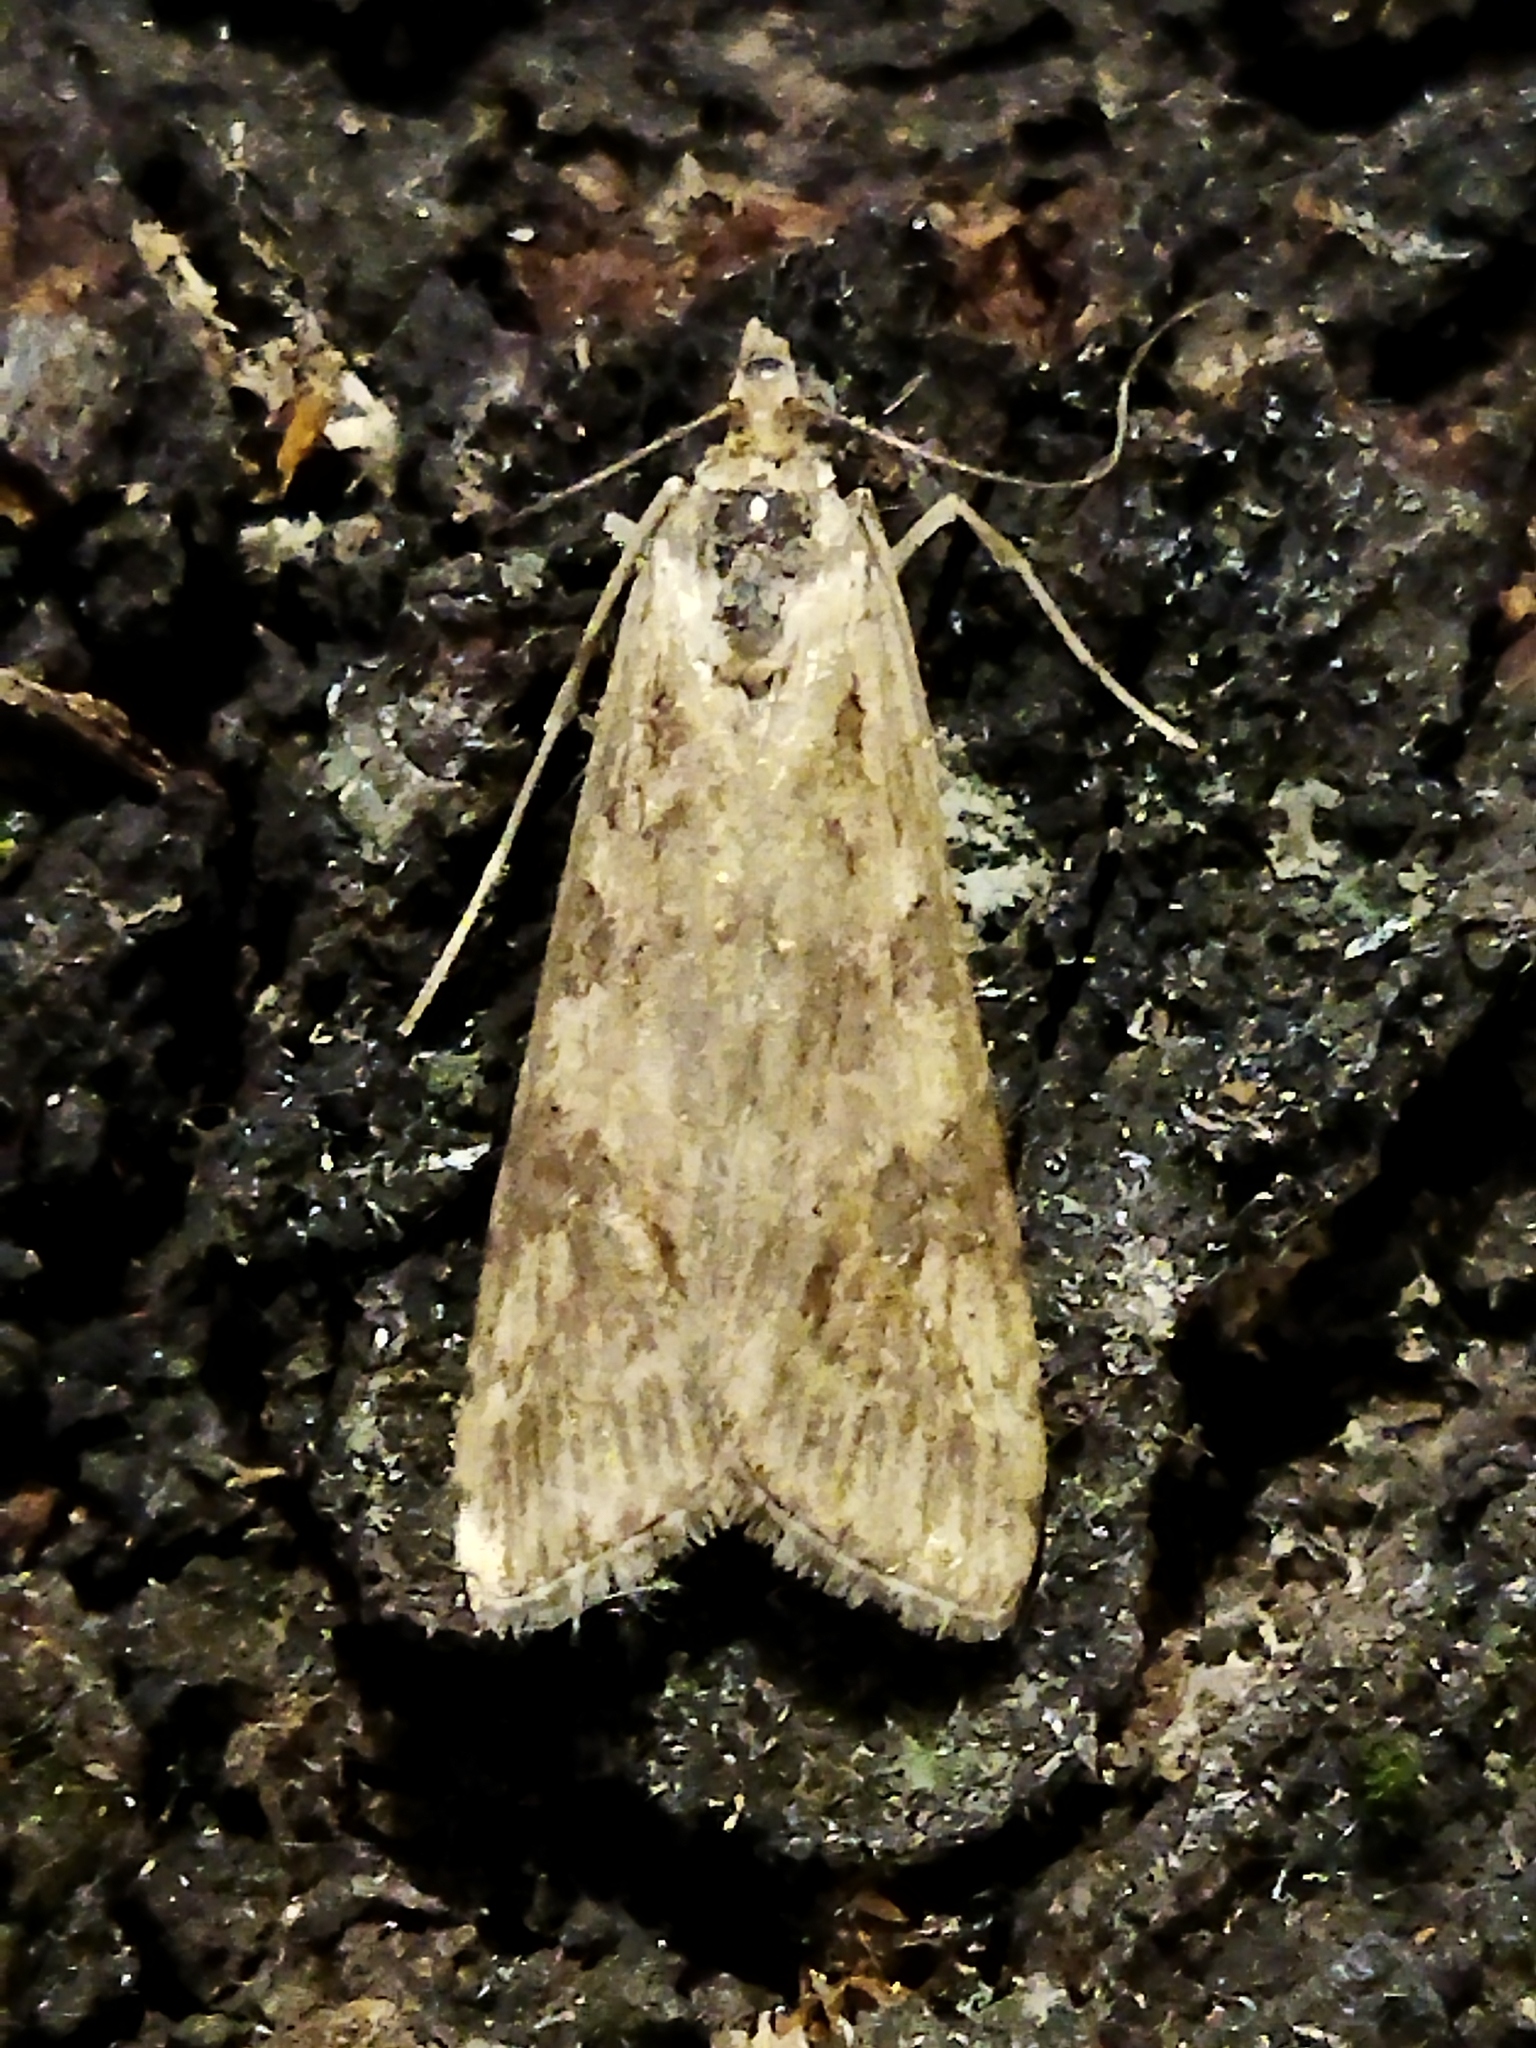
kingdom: Animalia
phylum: Arthropoda
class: Insecta
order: Lepidoptera
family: Crambidae
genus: Nomophila
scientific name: Nomophila noctuella
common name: Rush veneer
